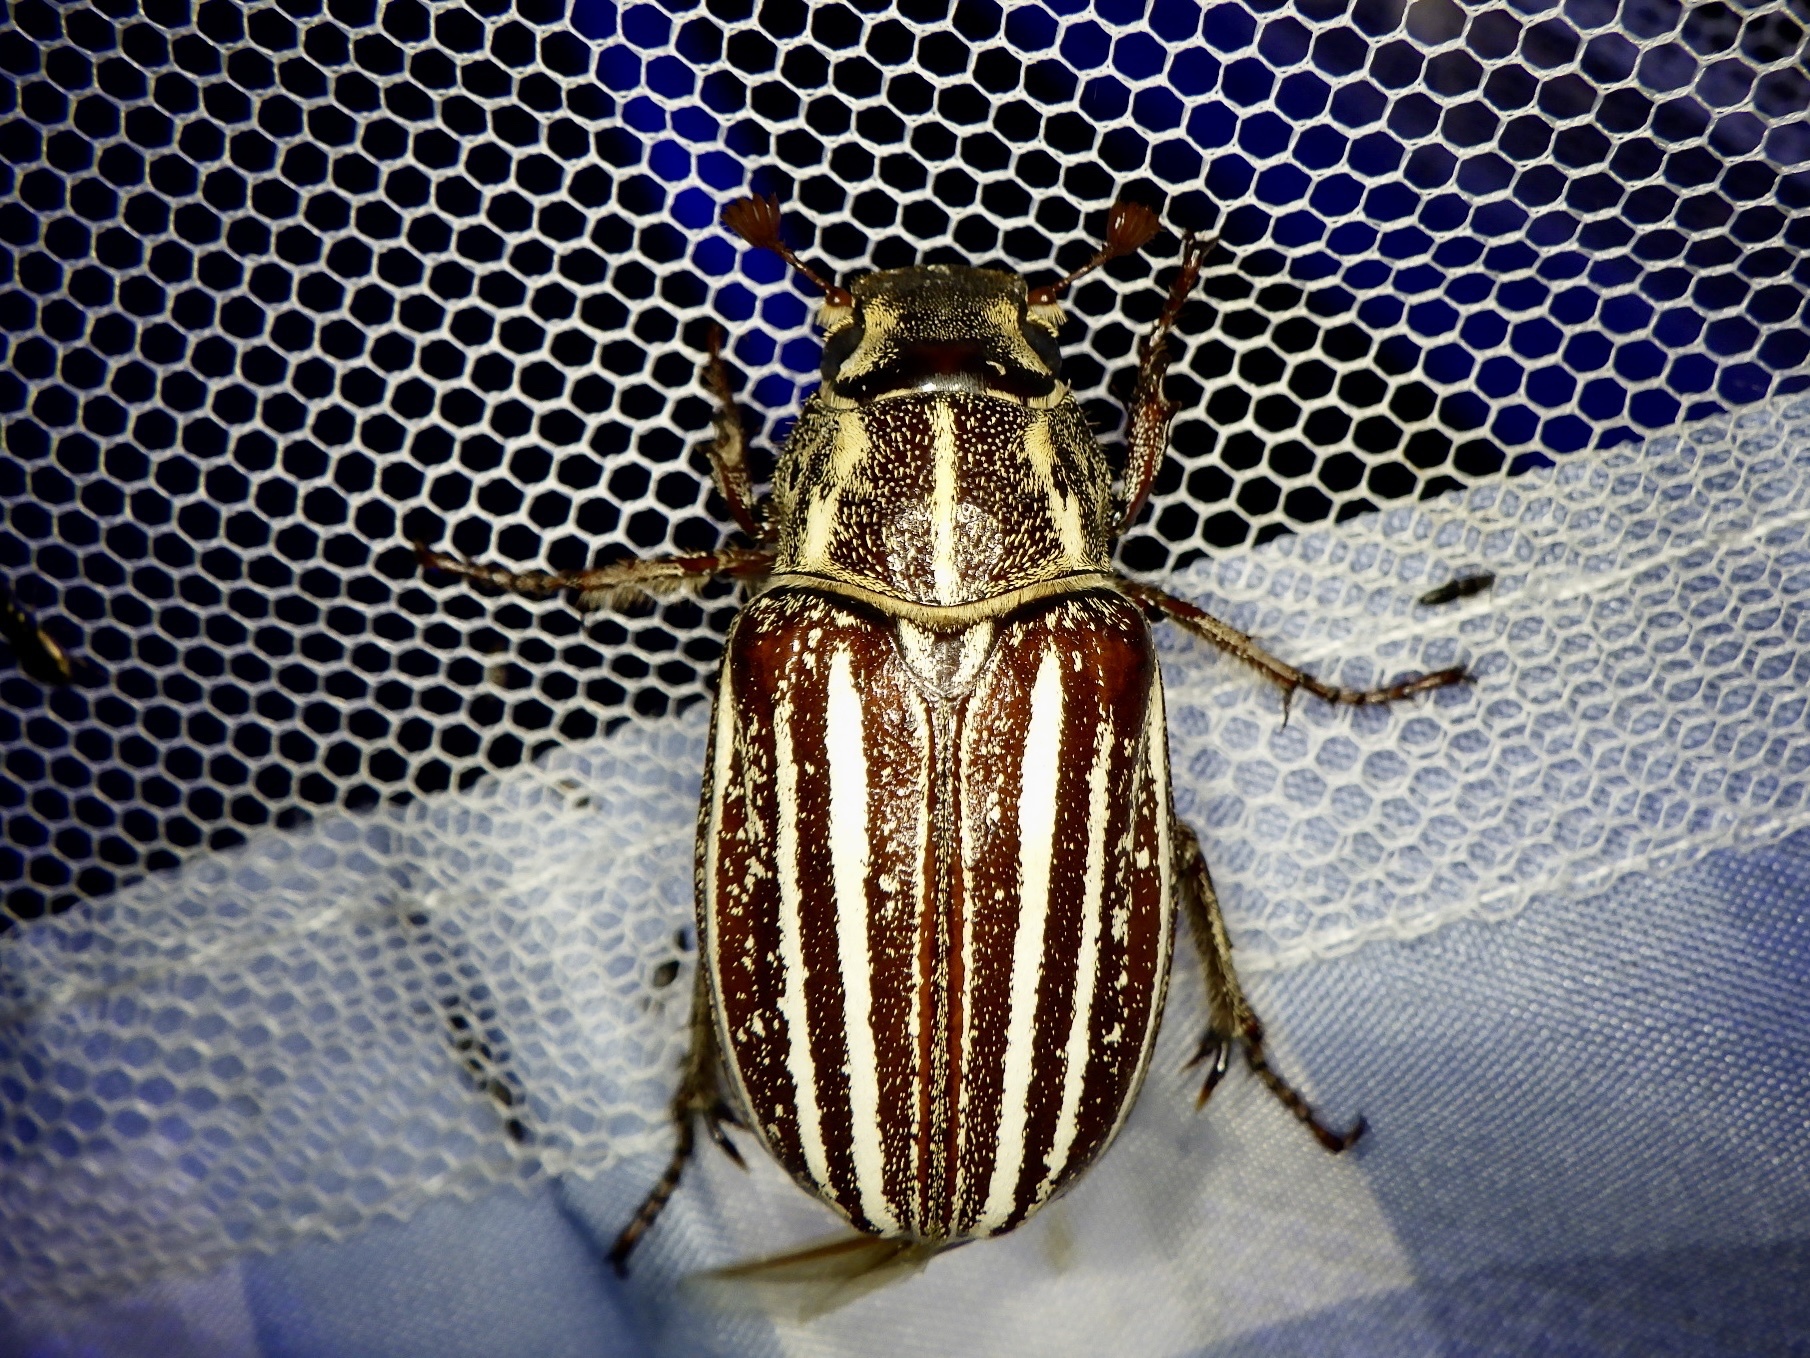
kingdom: Animalia
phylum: Arthropoda
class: Insecta
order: Coleoptera
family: Scarabaeidae
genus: Polyphylla
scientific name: Polyphylla albolineata
